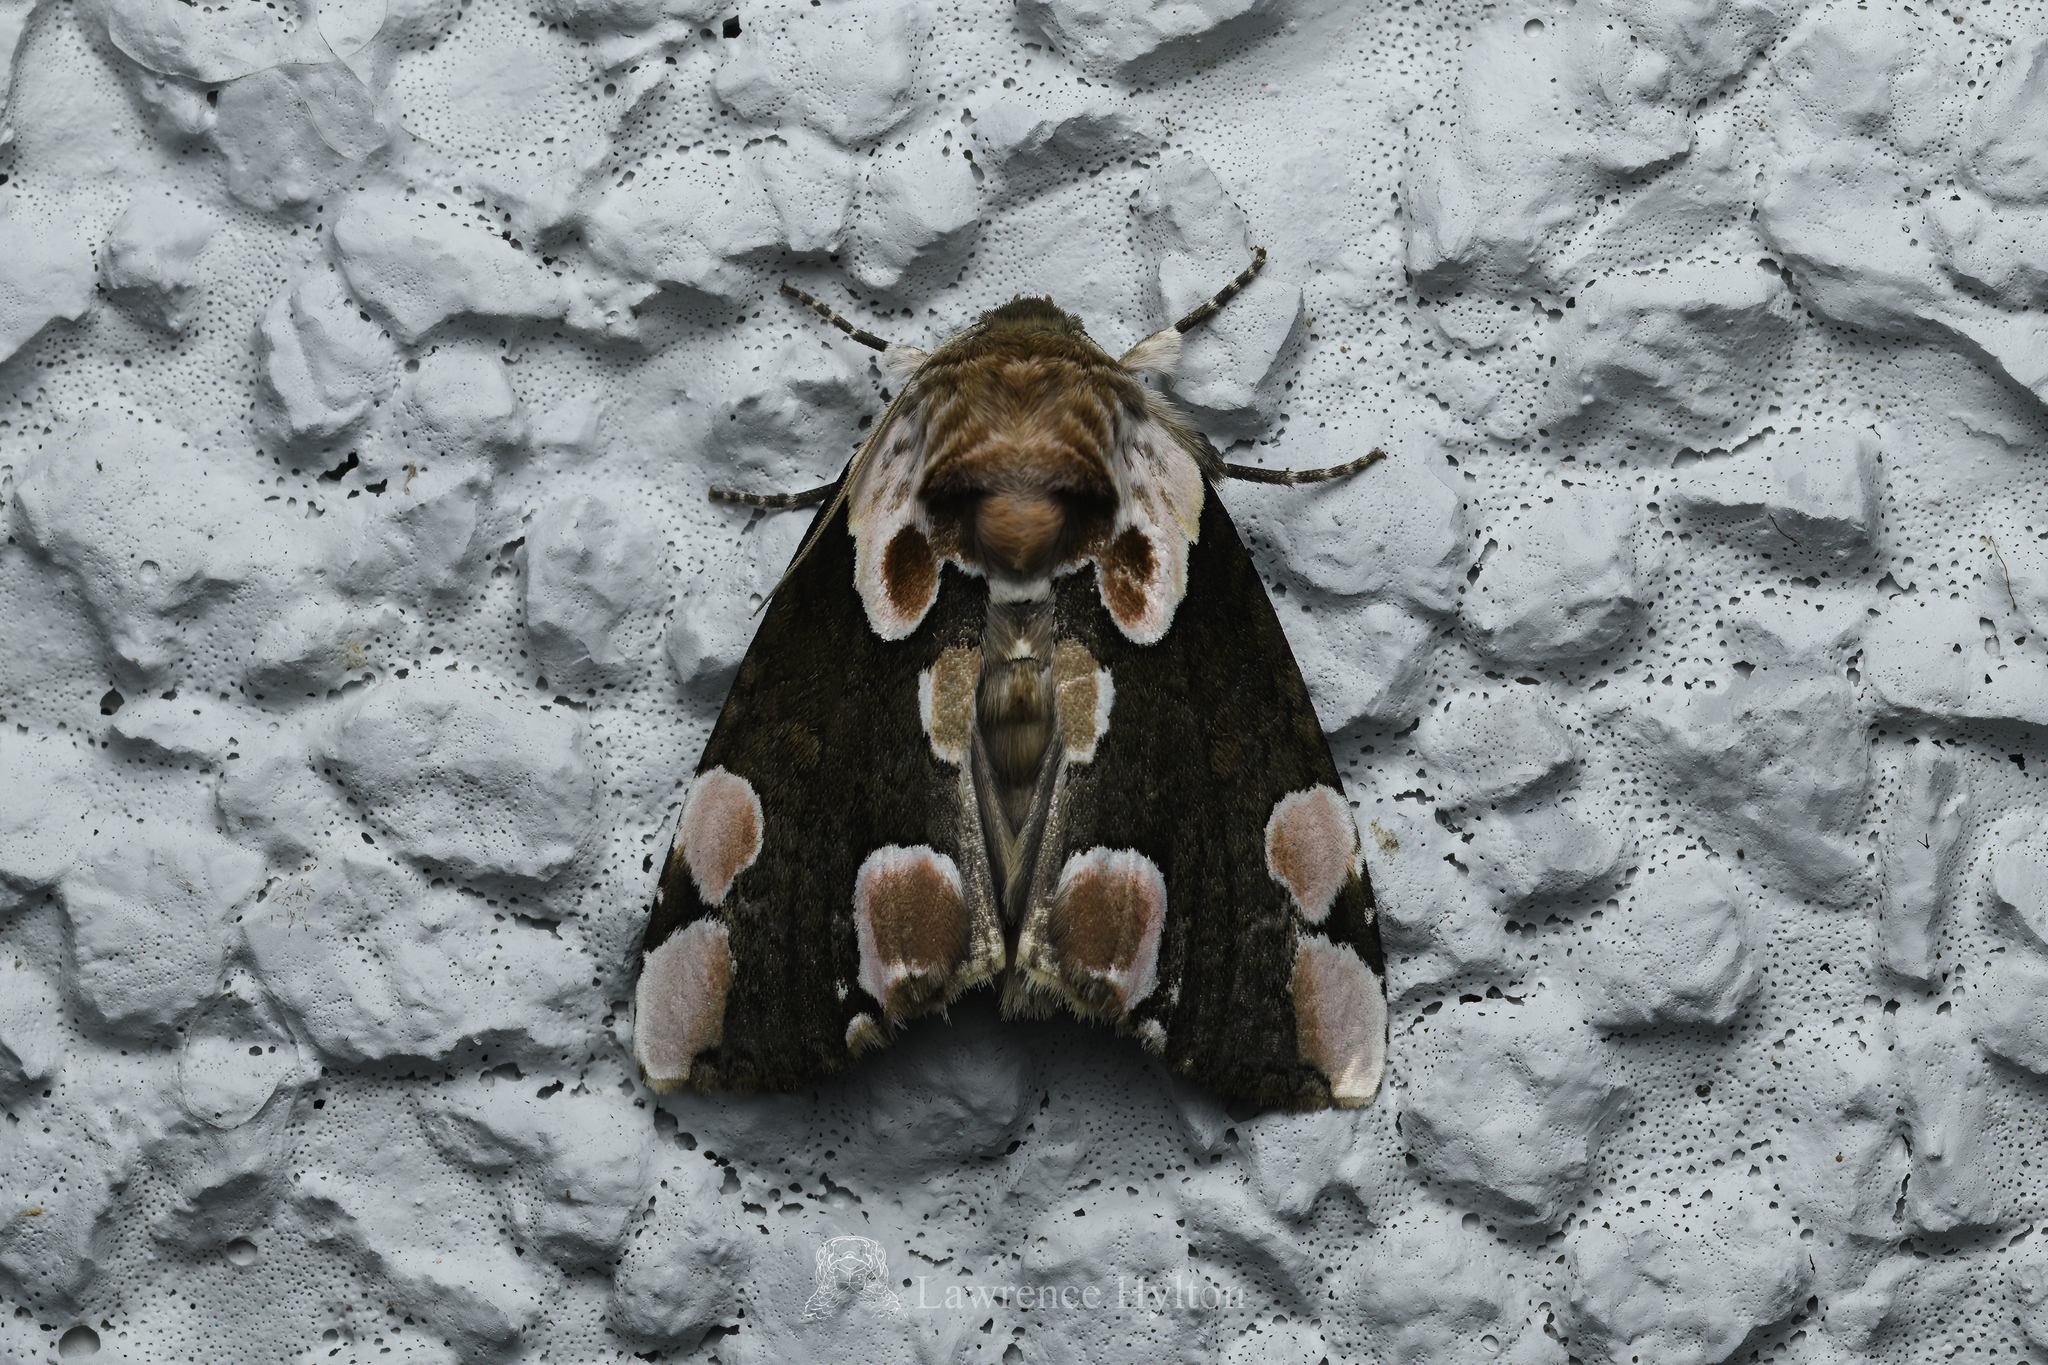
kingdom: Animalia
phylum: Arthropoda
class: Insecta
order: Lepidoptera
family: Drepanidae
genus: Thyatira
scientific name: Thyatira batis
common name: Peach blossom
